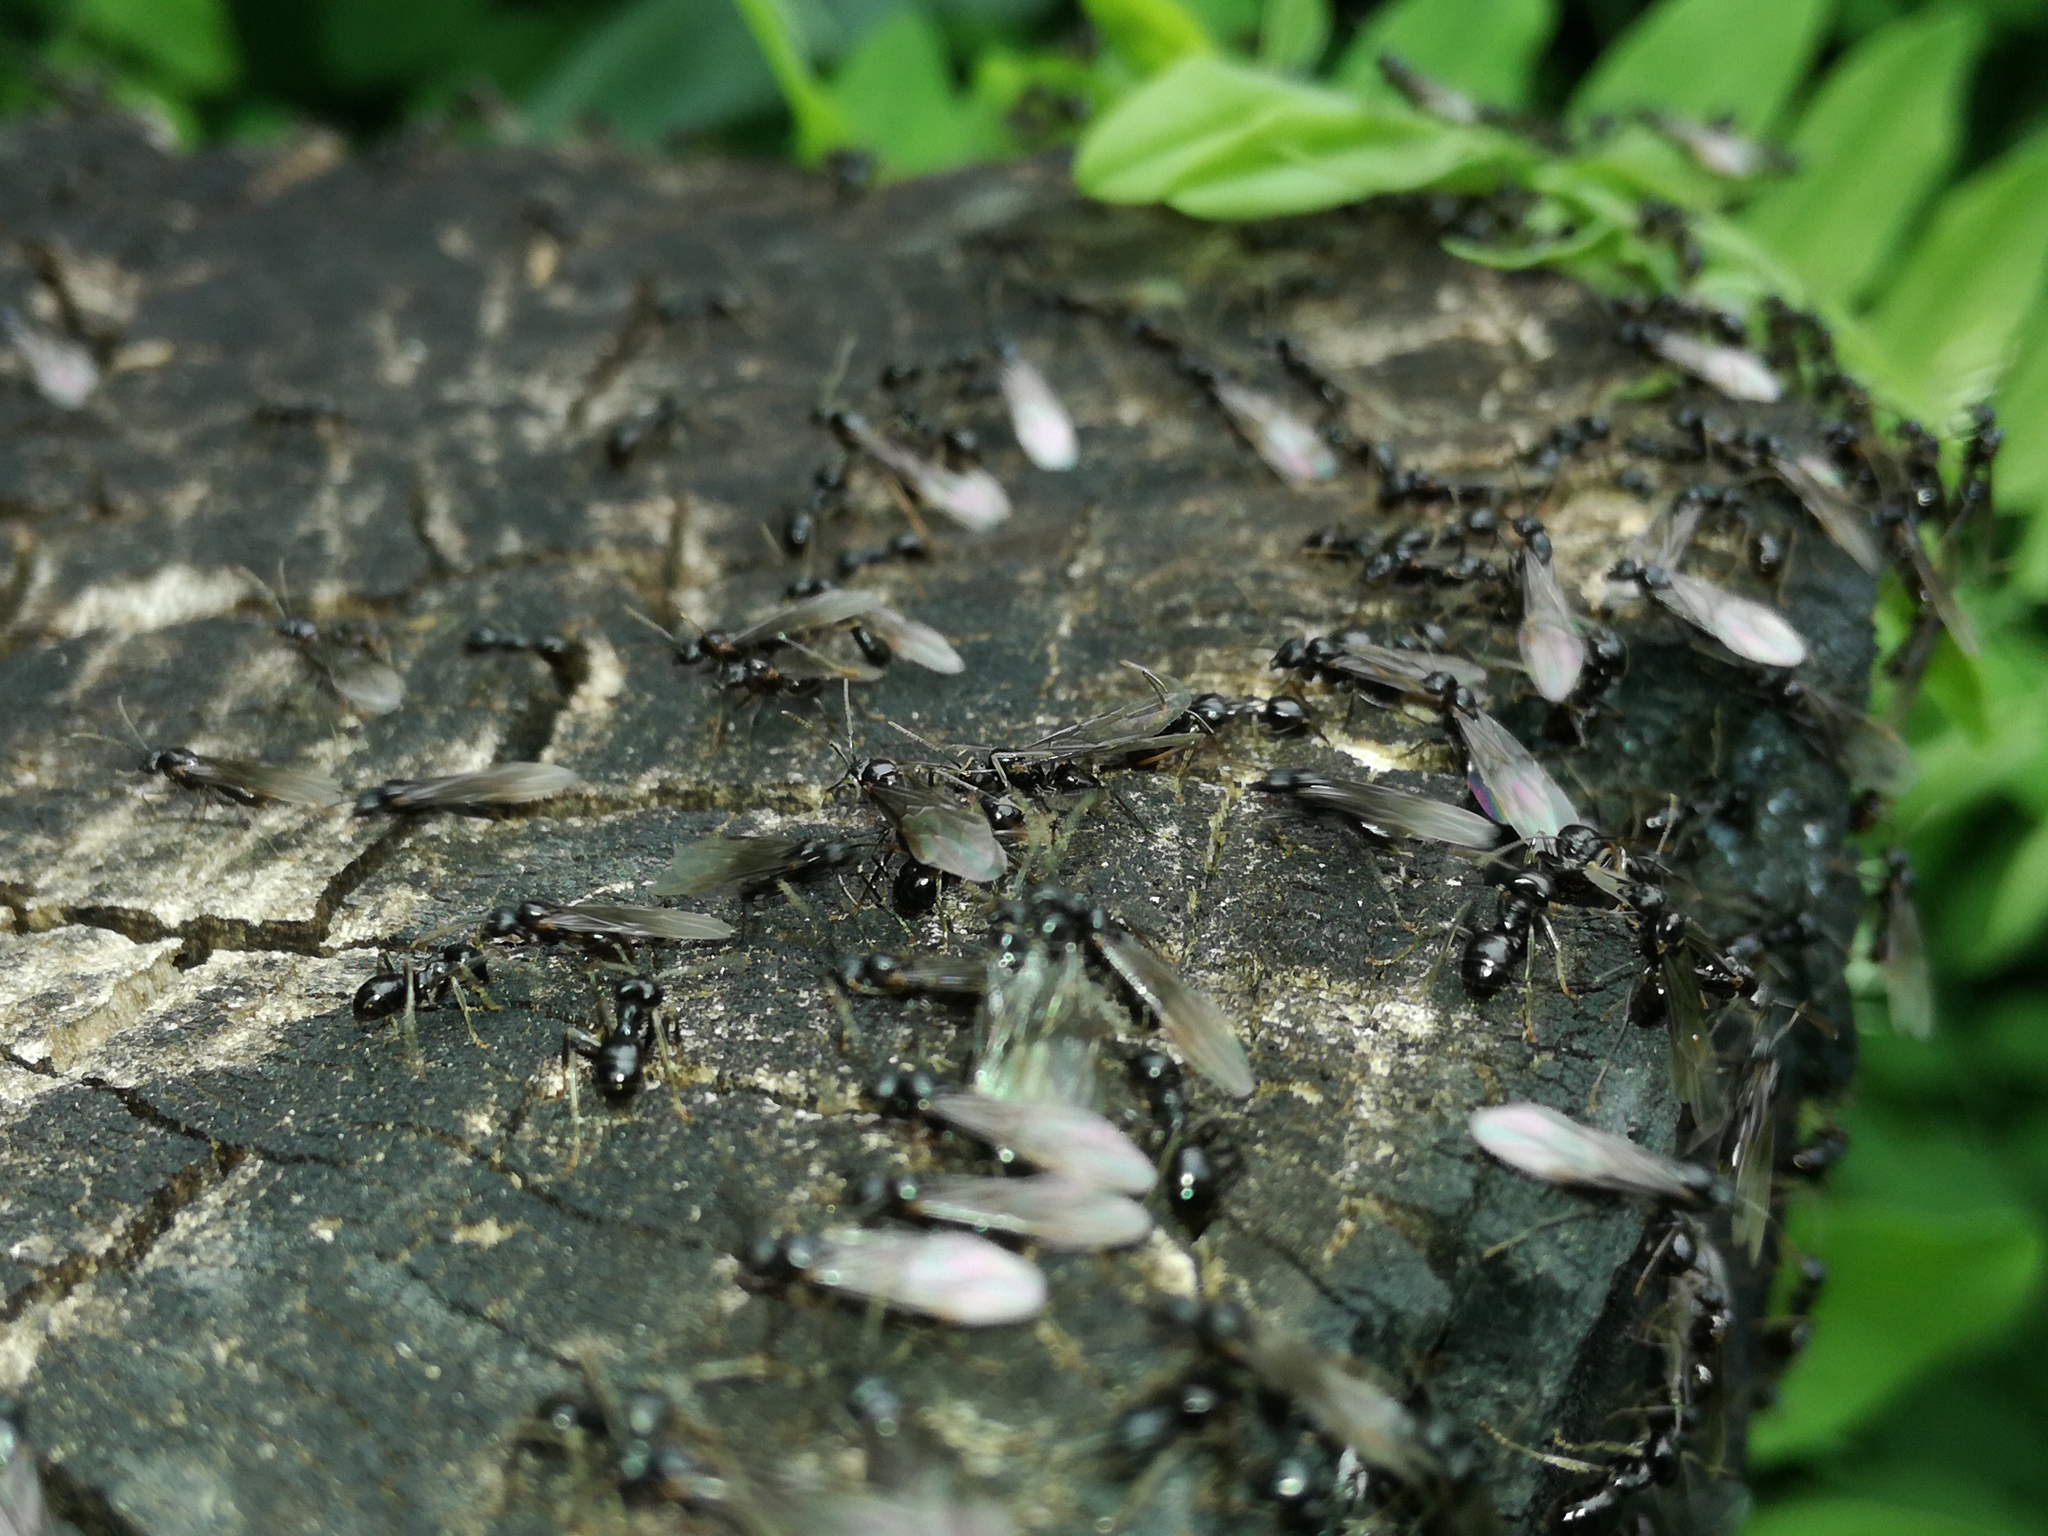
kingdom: Animalia
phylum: Arthropoda
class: Insecta
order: Hymenoptera
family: Formicidae
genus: Lasius
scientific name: Lasius fuliginosus
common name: Jet ant
